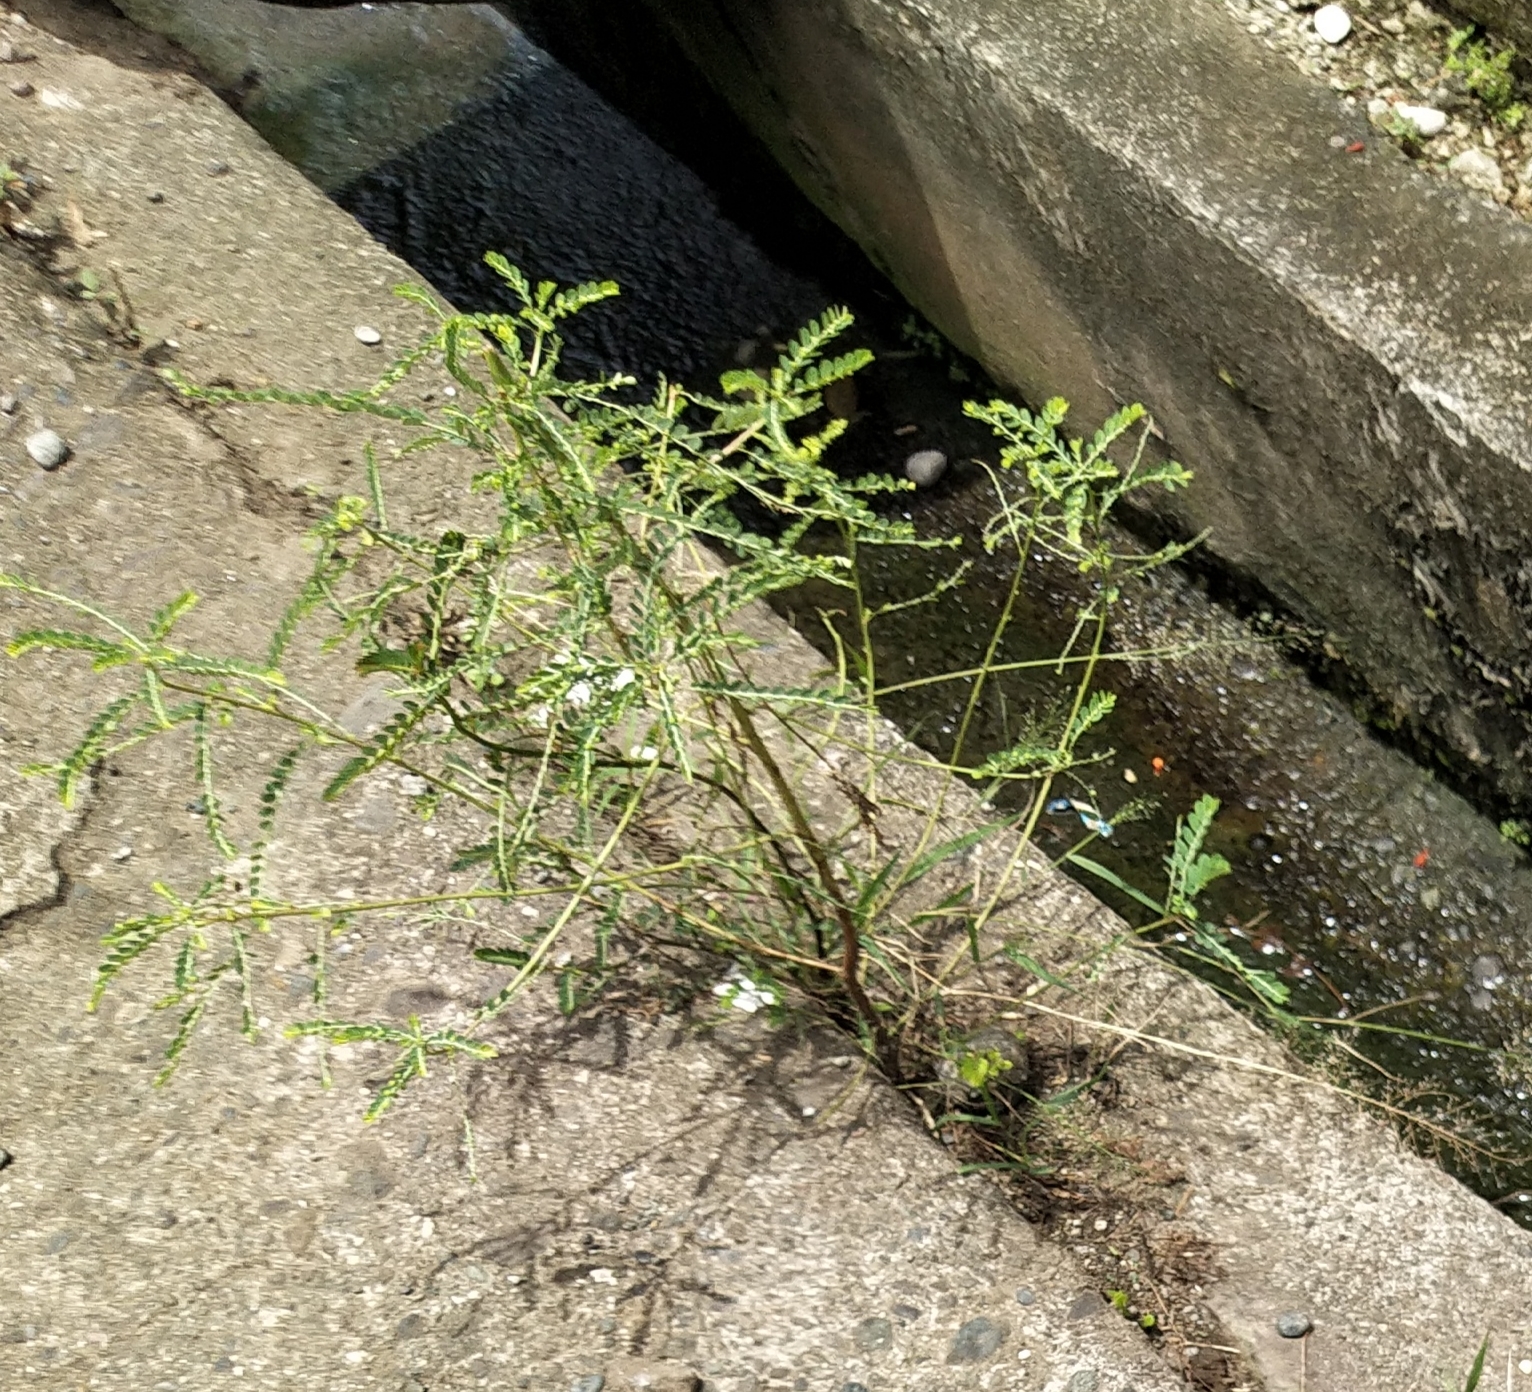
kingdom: Plantae
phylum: Tracheophyta
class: Magnoliopsida
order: Malpighiales
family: Phyllanthaceae
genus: Phyllanthus
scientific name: Phyllanthus urinaria
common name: Chamber bitter
